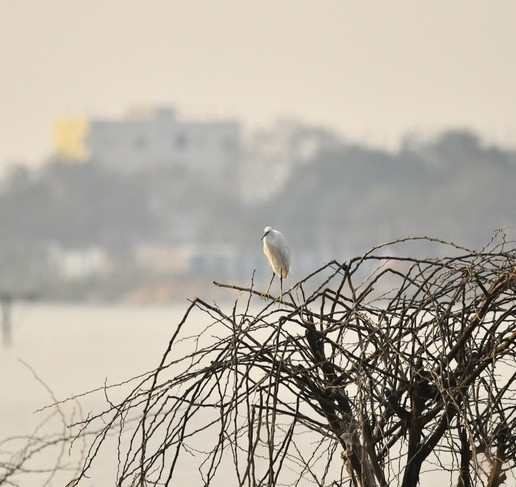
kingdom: Animalia
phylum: Chordata
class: Aves
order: Pelecaniformes
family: Ardeidae
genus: Egretta
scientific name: Egretta garzetta
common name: Little egret
